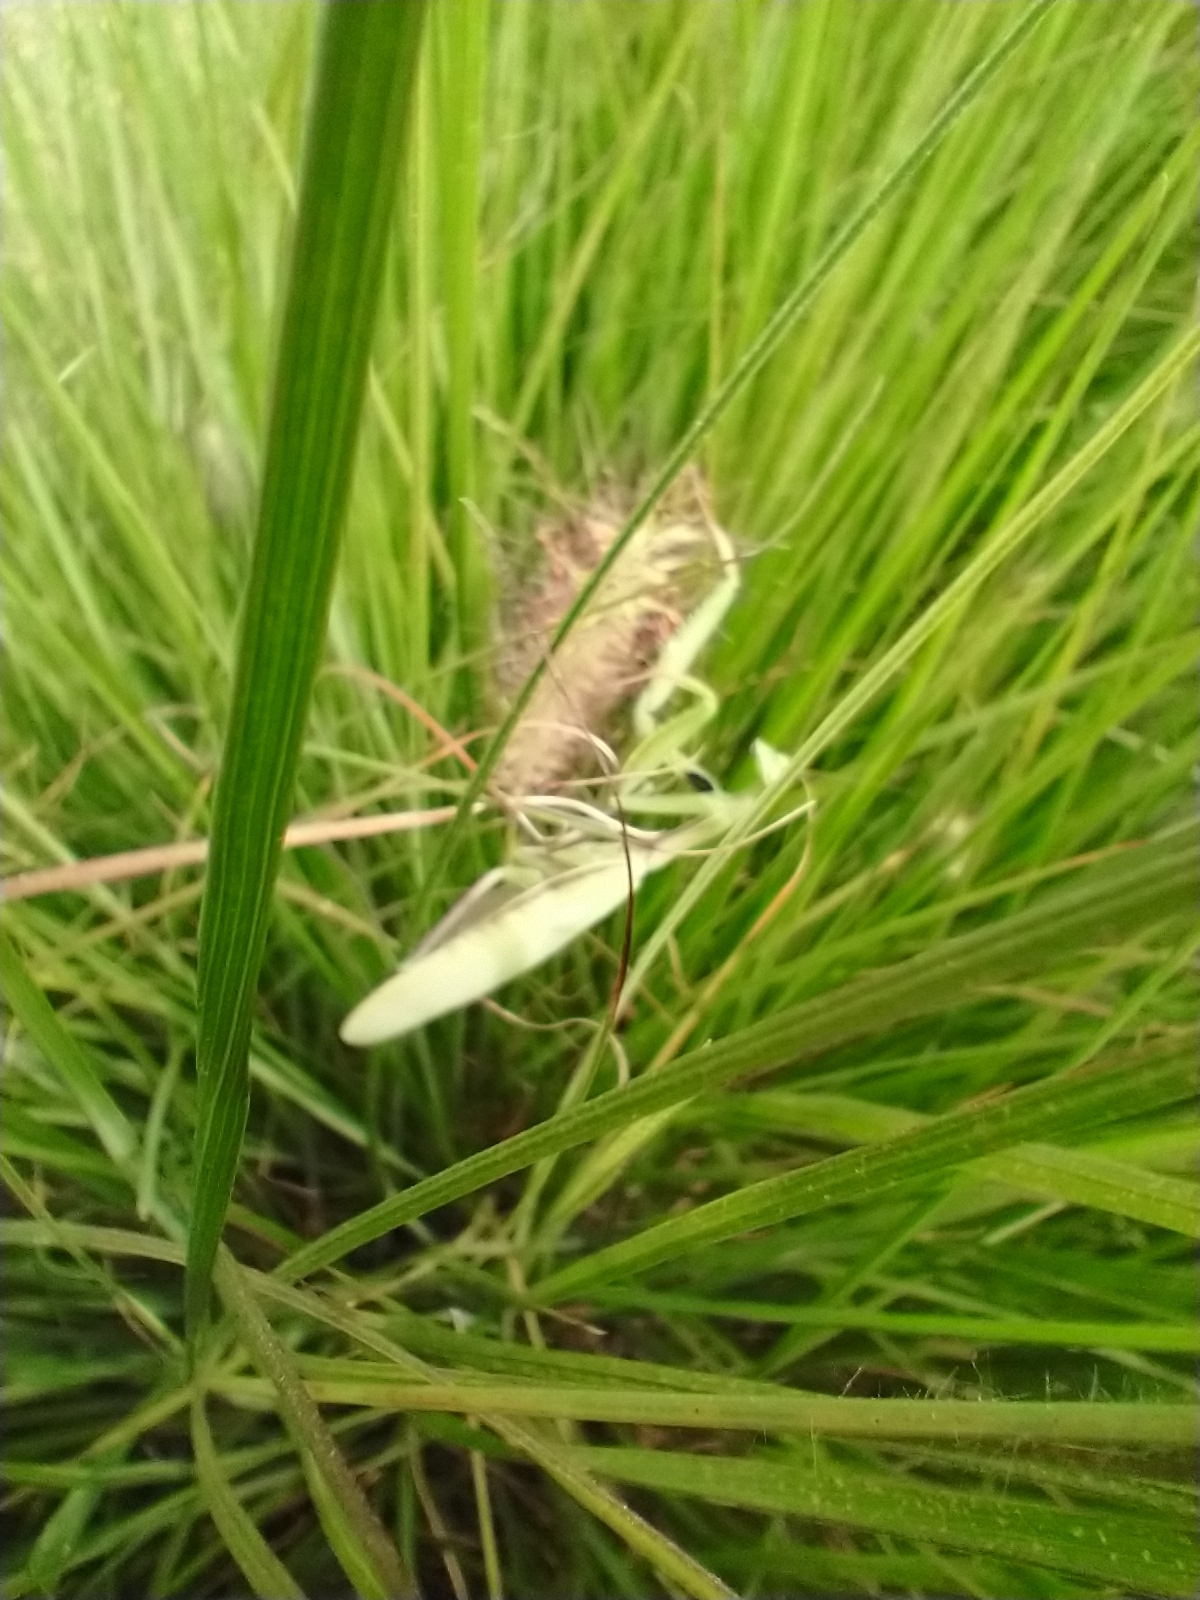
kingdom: Animalia
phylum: Arthropoda
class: Insecta
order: Mantodea
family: Mantidae
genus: Mantis
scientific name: Mantis religiosa
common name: Praying mantis
